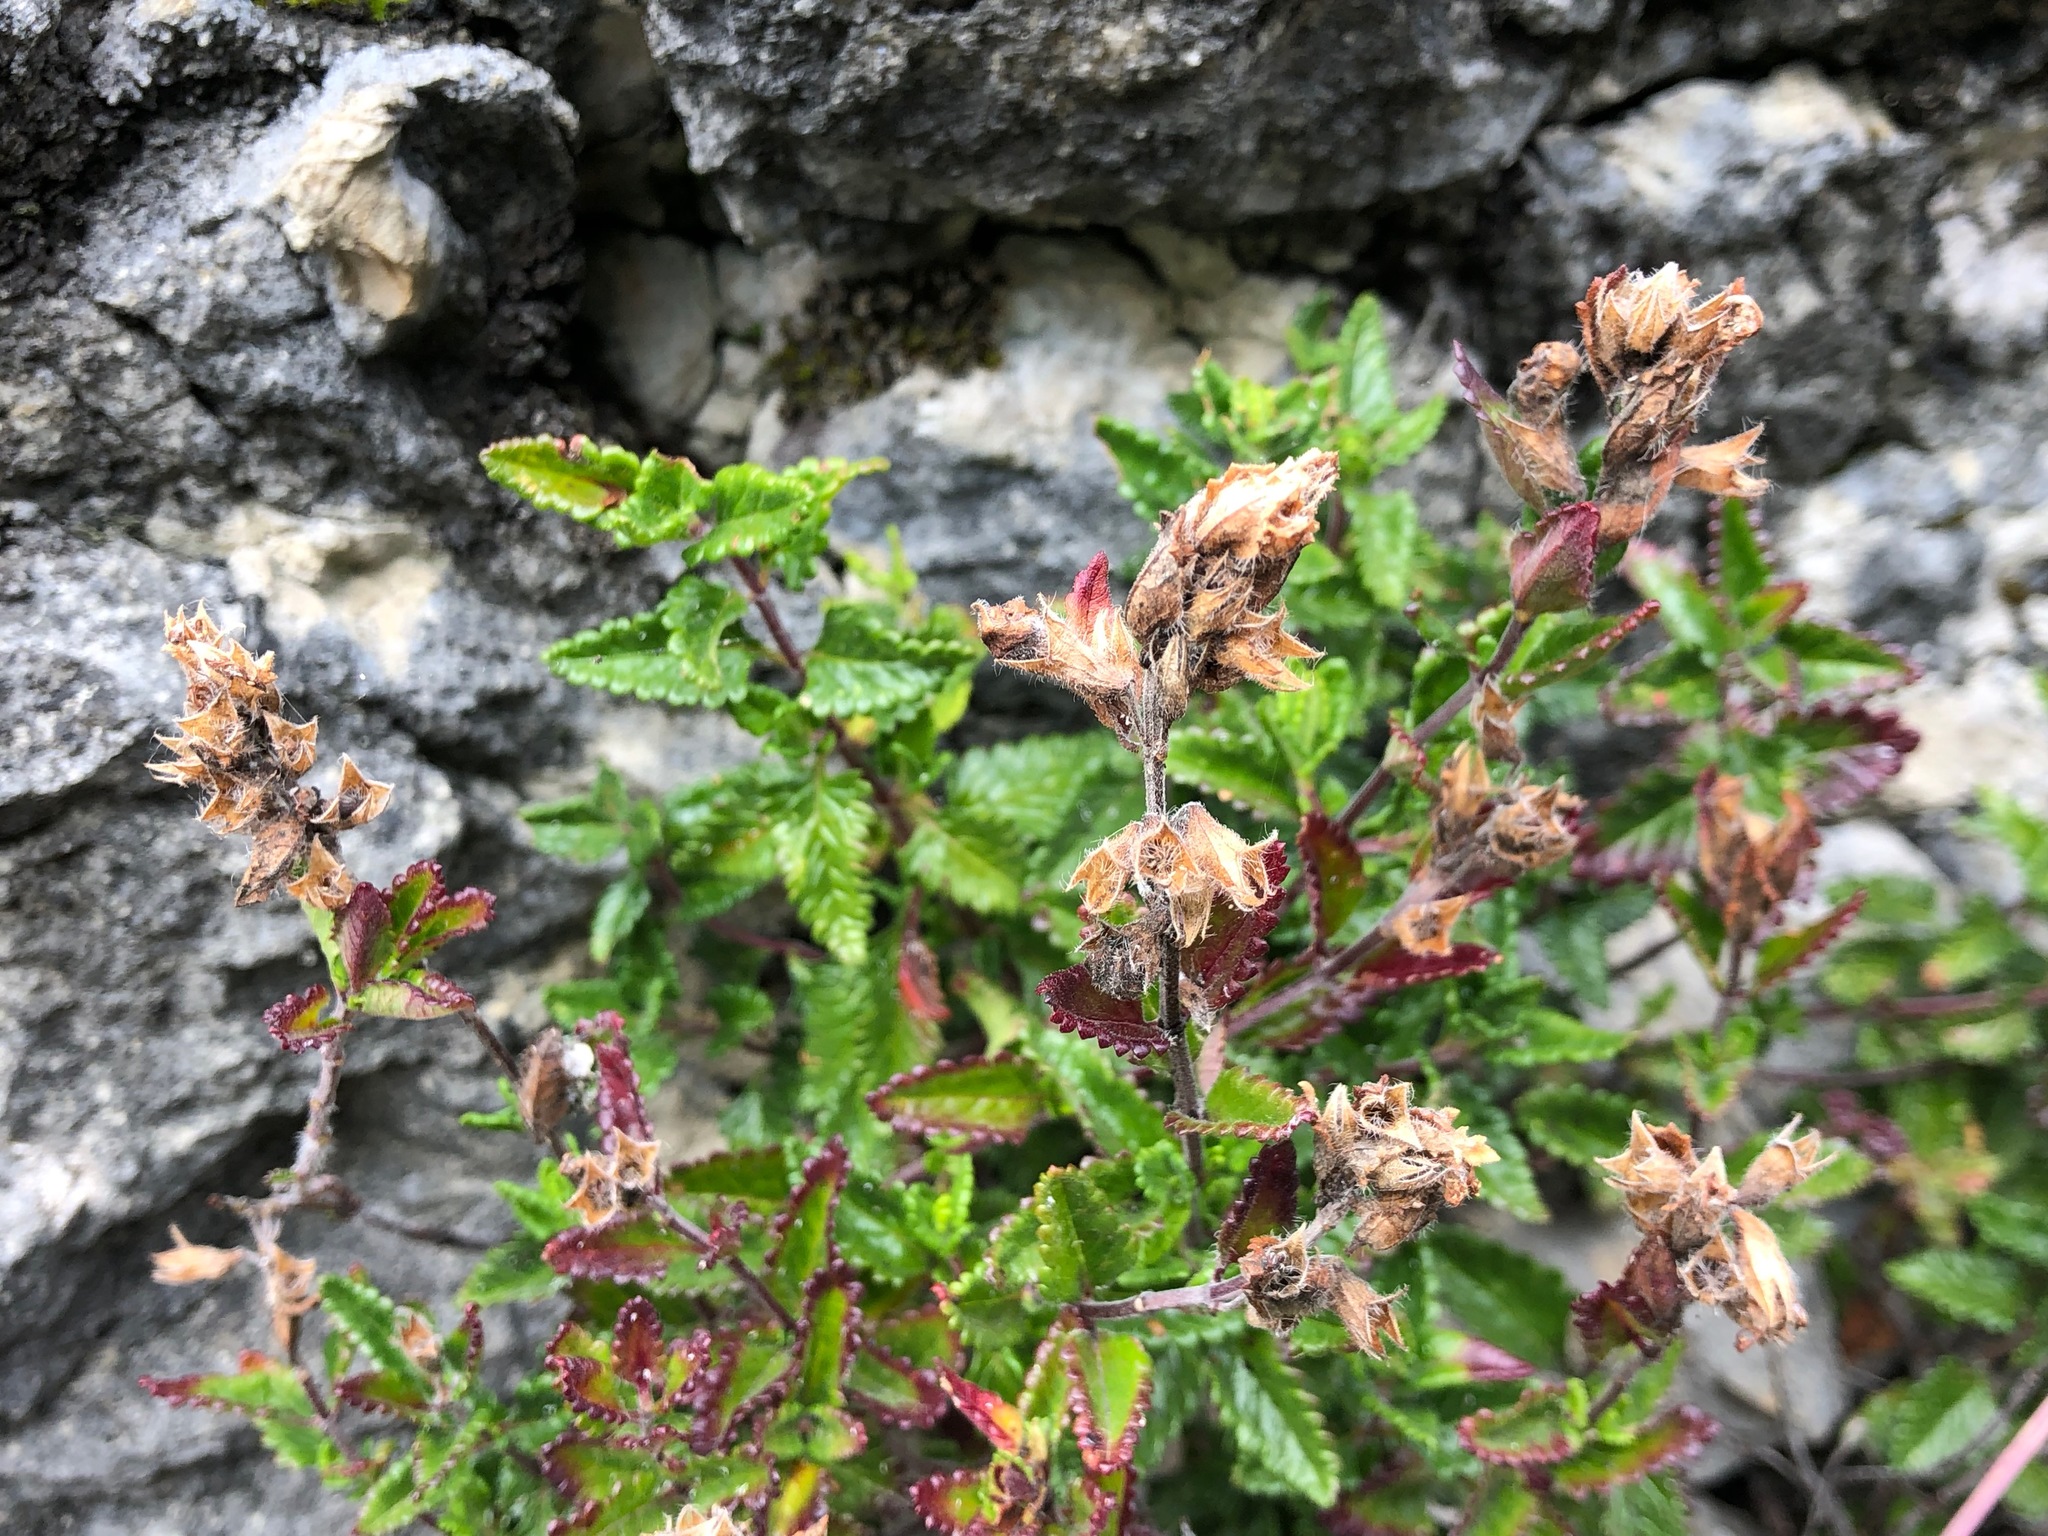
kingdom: Plantae
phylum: Tracheophyta
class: Magnoliopsida
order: Lamiales
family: Lamiaceae
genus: Teucrium
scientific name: Teucrium chamaedrys
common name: Wall germander
